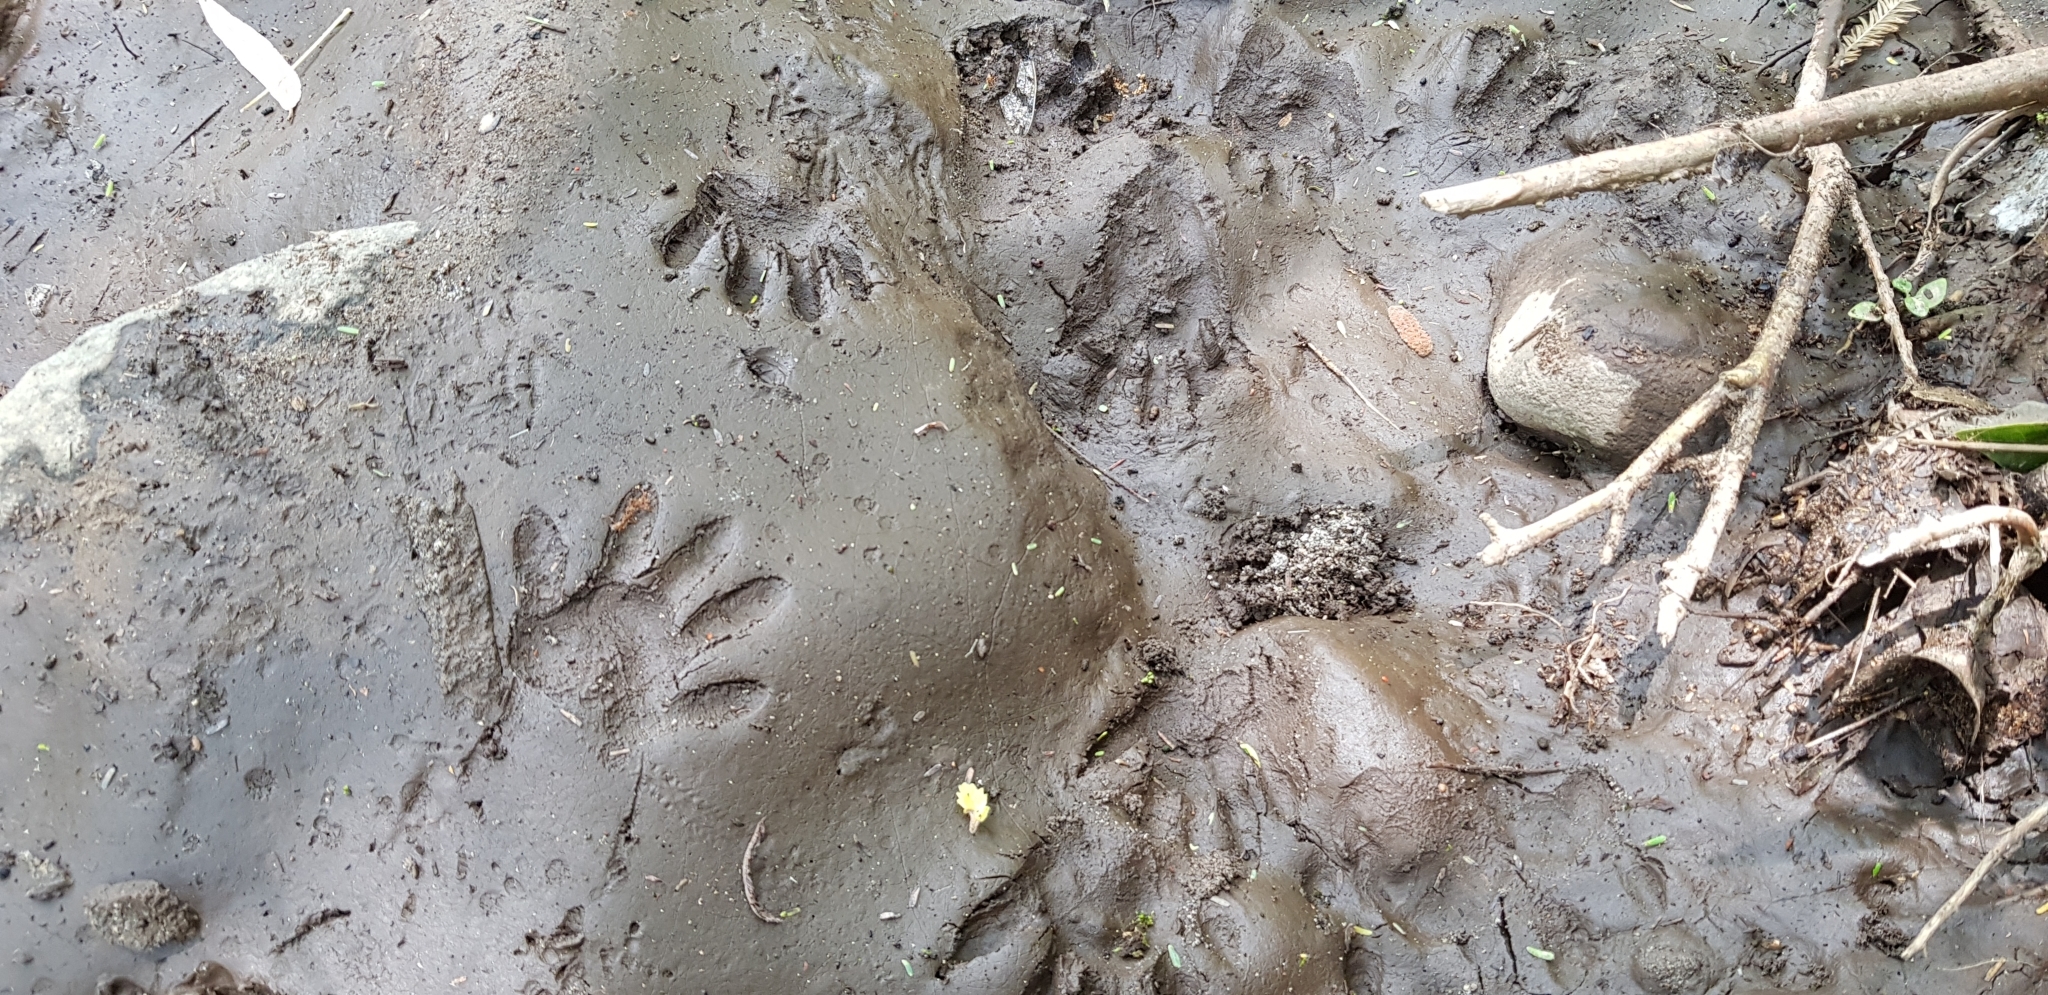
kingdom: Animalia
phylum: Chordata
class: Mammalia
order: Carnivora
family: Procyonidae
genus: Procyon
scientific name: Procyon lotor
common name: Raccoon
